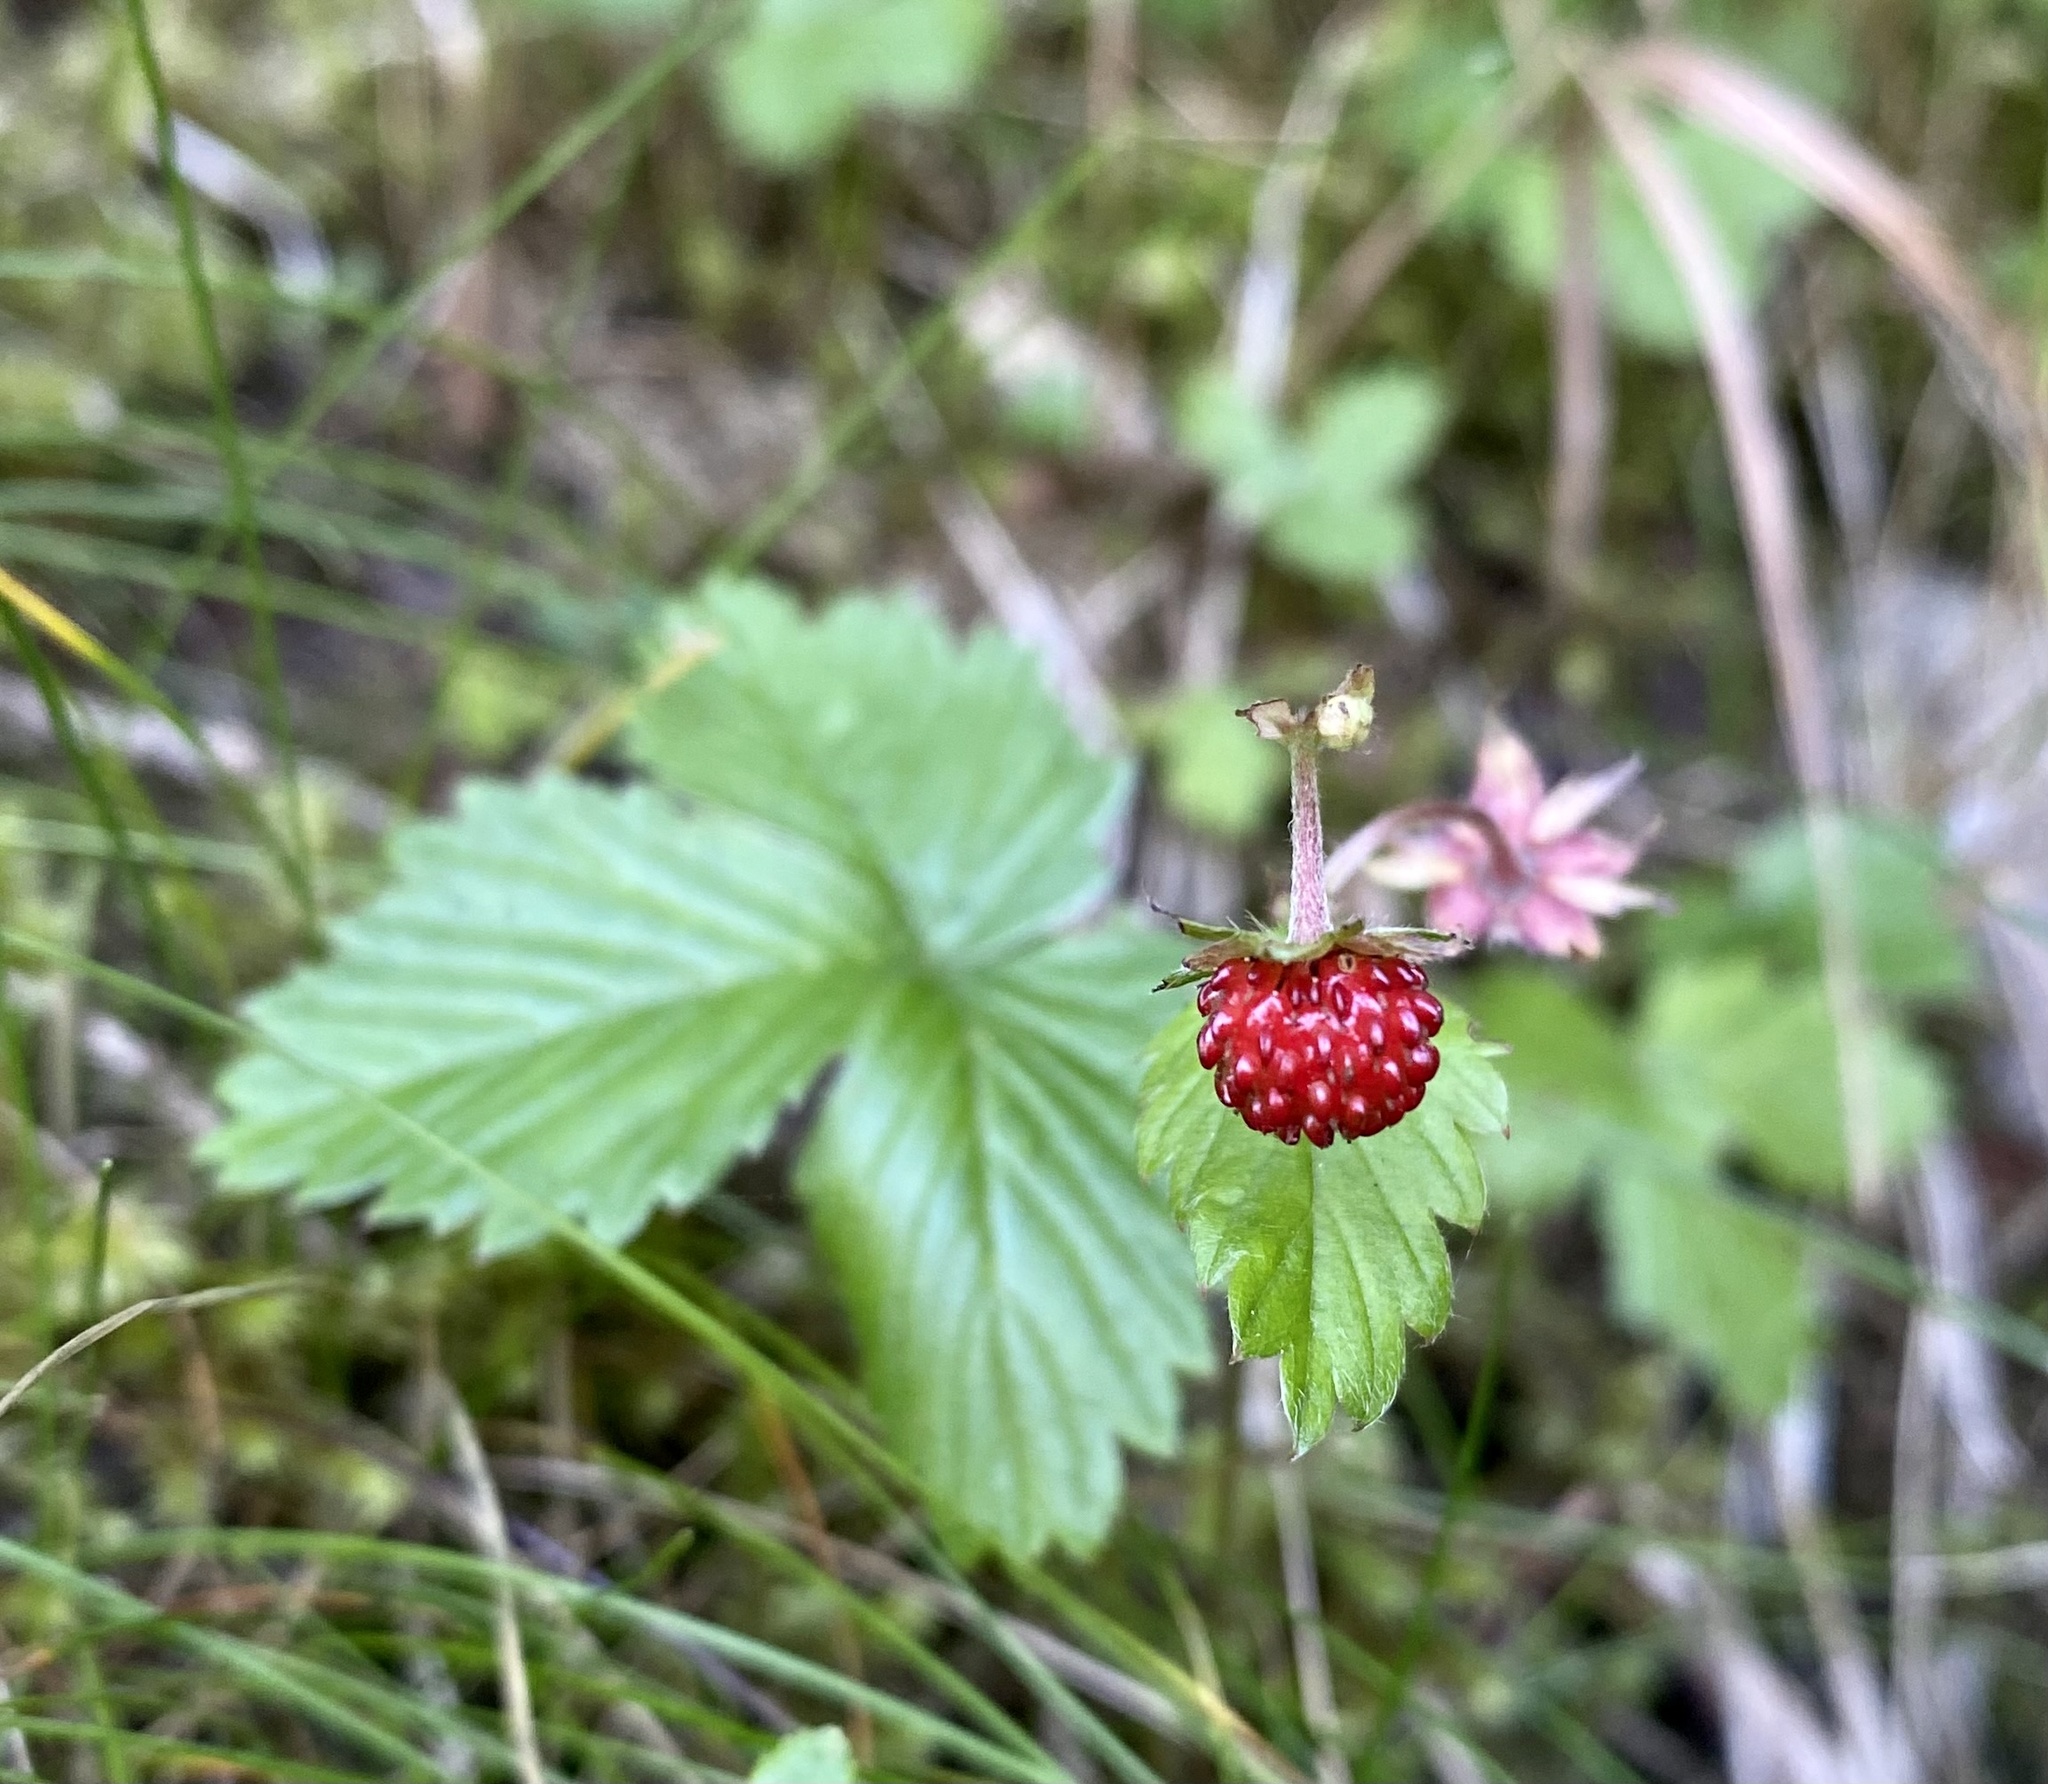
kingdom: Plantae
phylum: Tracheophyta
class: Magnoliopsida
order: Rosales
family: Rosaceae
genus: Fragaria
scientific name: Fragaria vesca
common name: Wild strawberry
